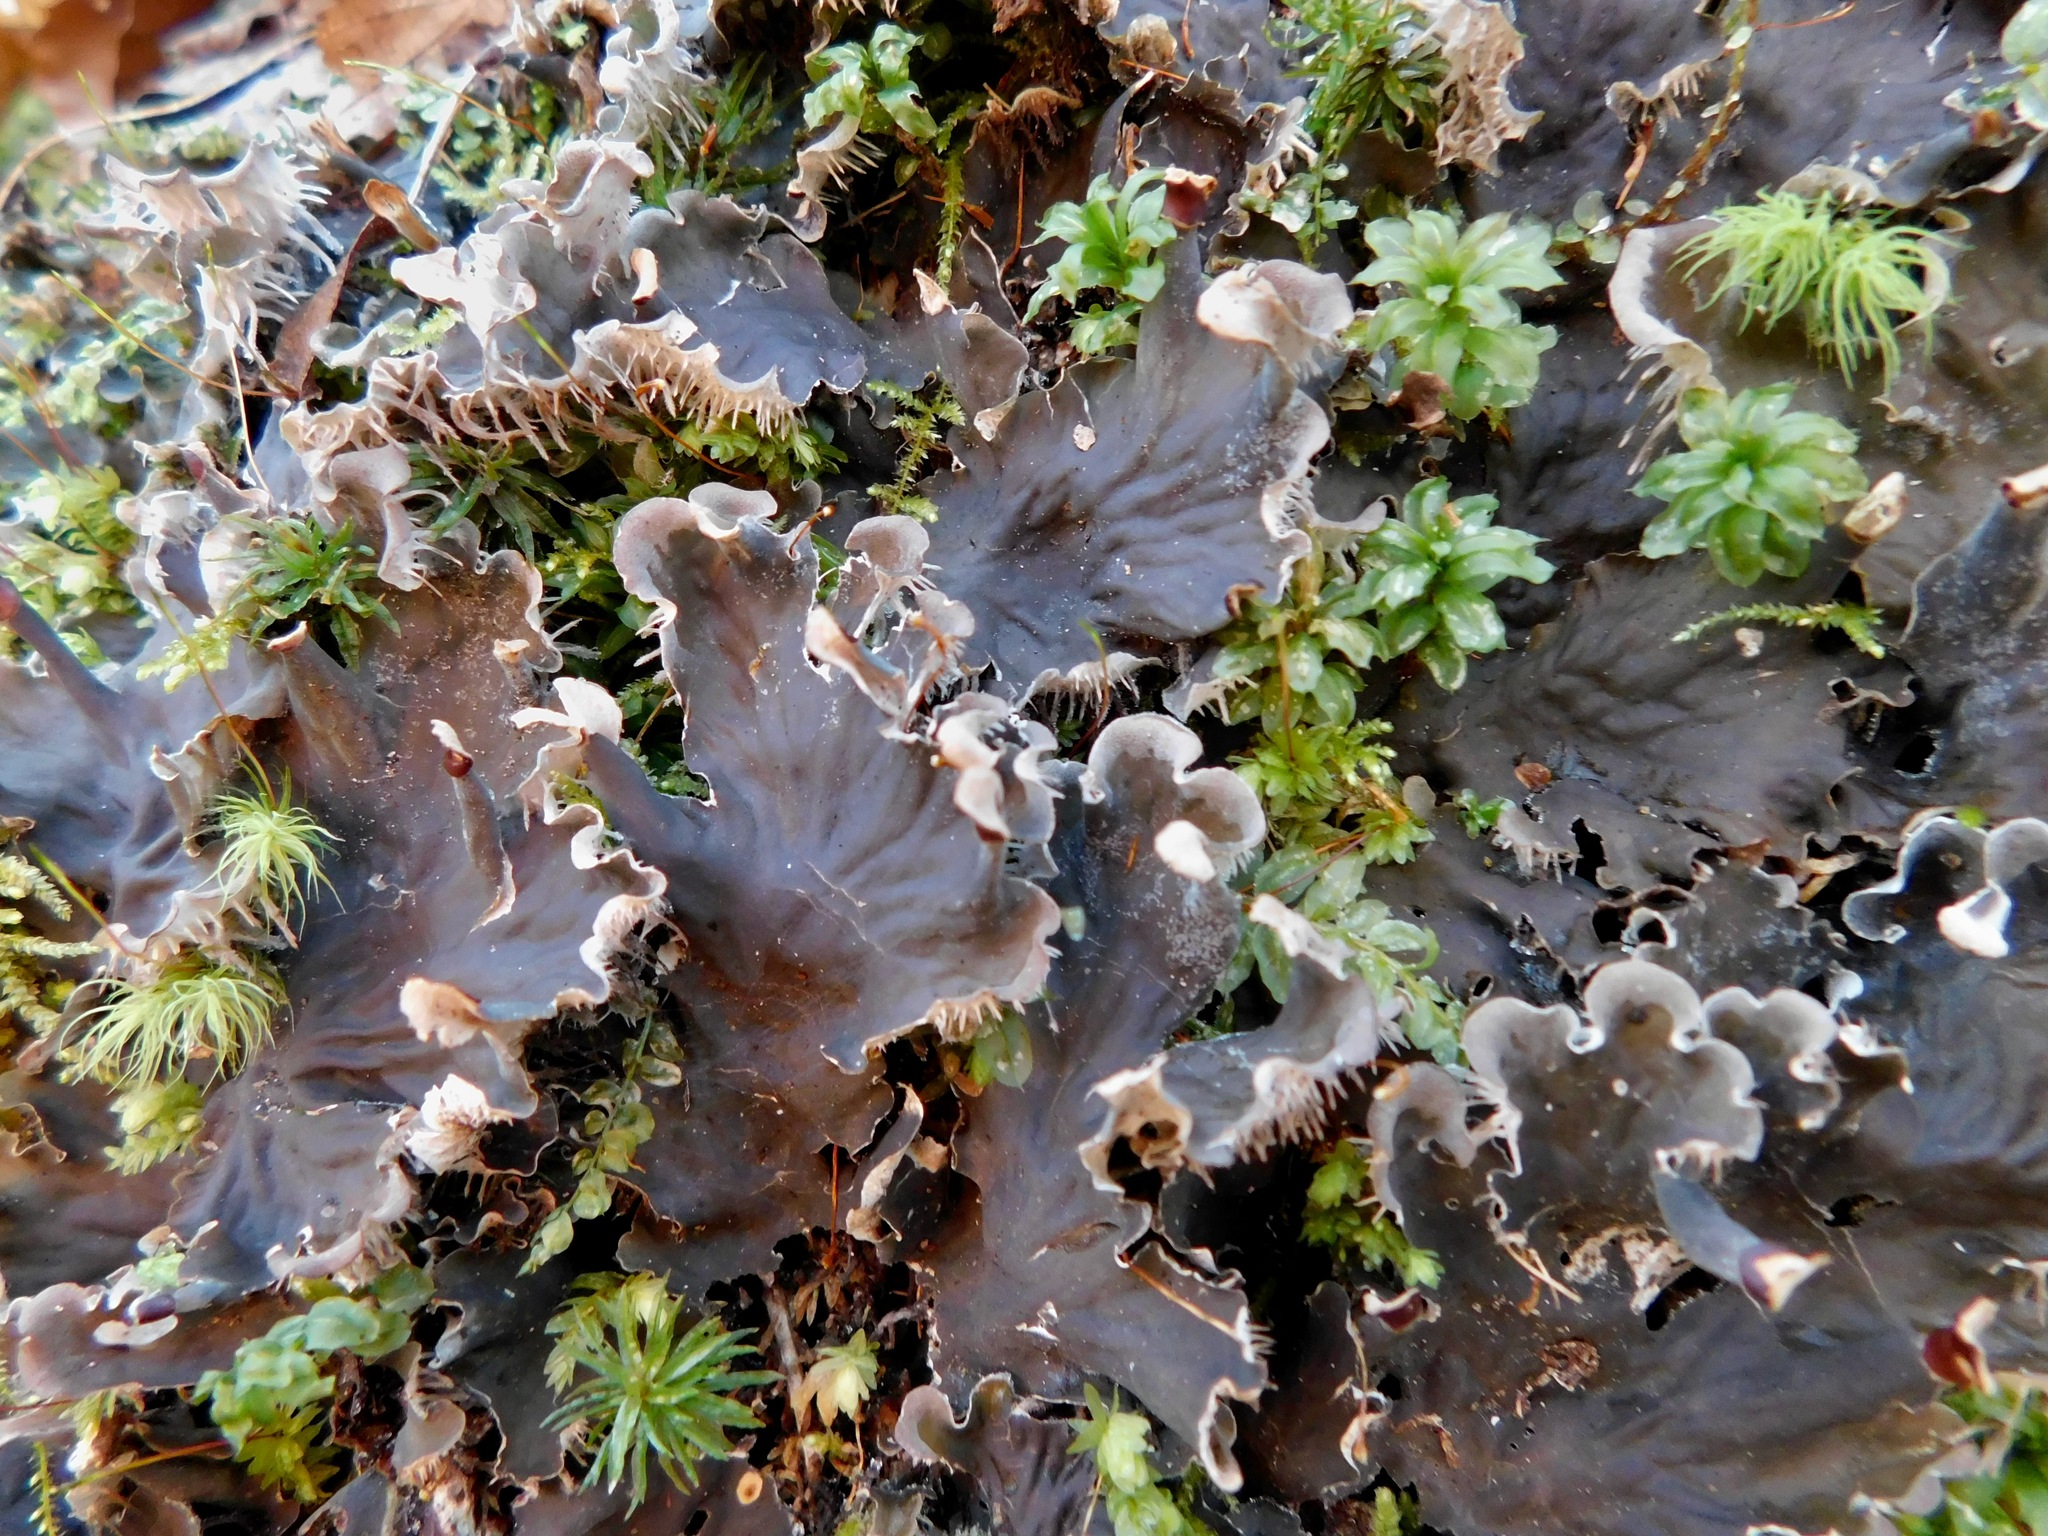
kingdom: Fungi
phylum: Ascomycota
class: Lecanoromycetes
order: Peltigerales
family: Peltigeraceae
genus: Peltigera
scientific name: Peltigera praetextata
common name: Scaly dog-lichen
